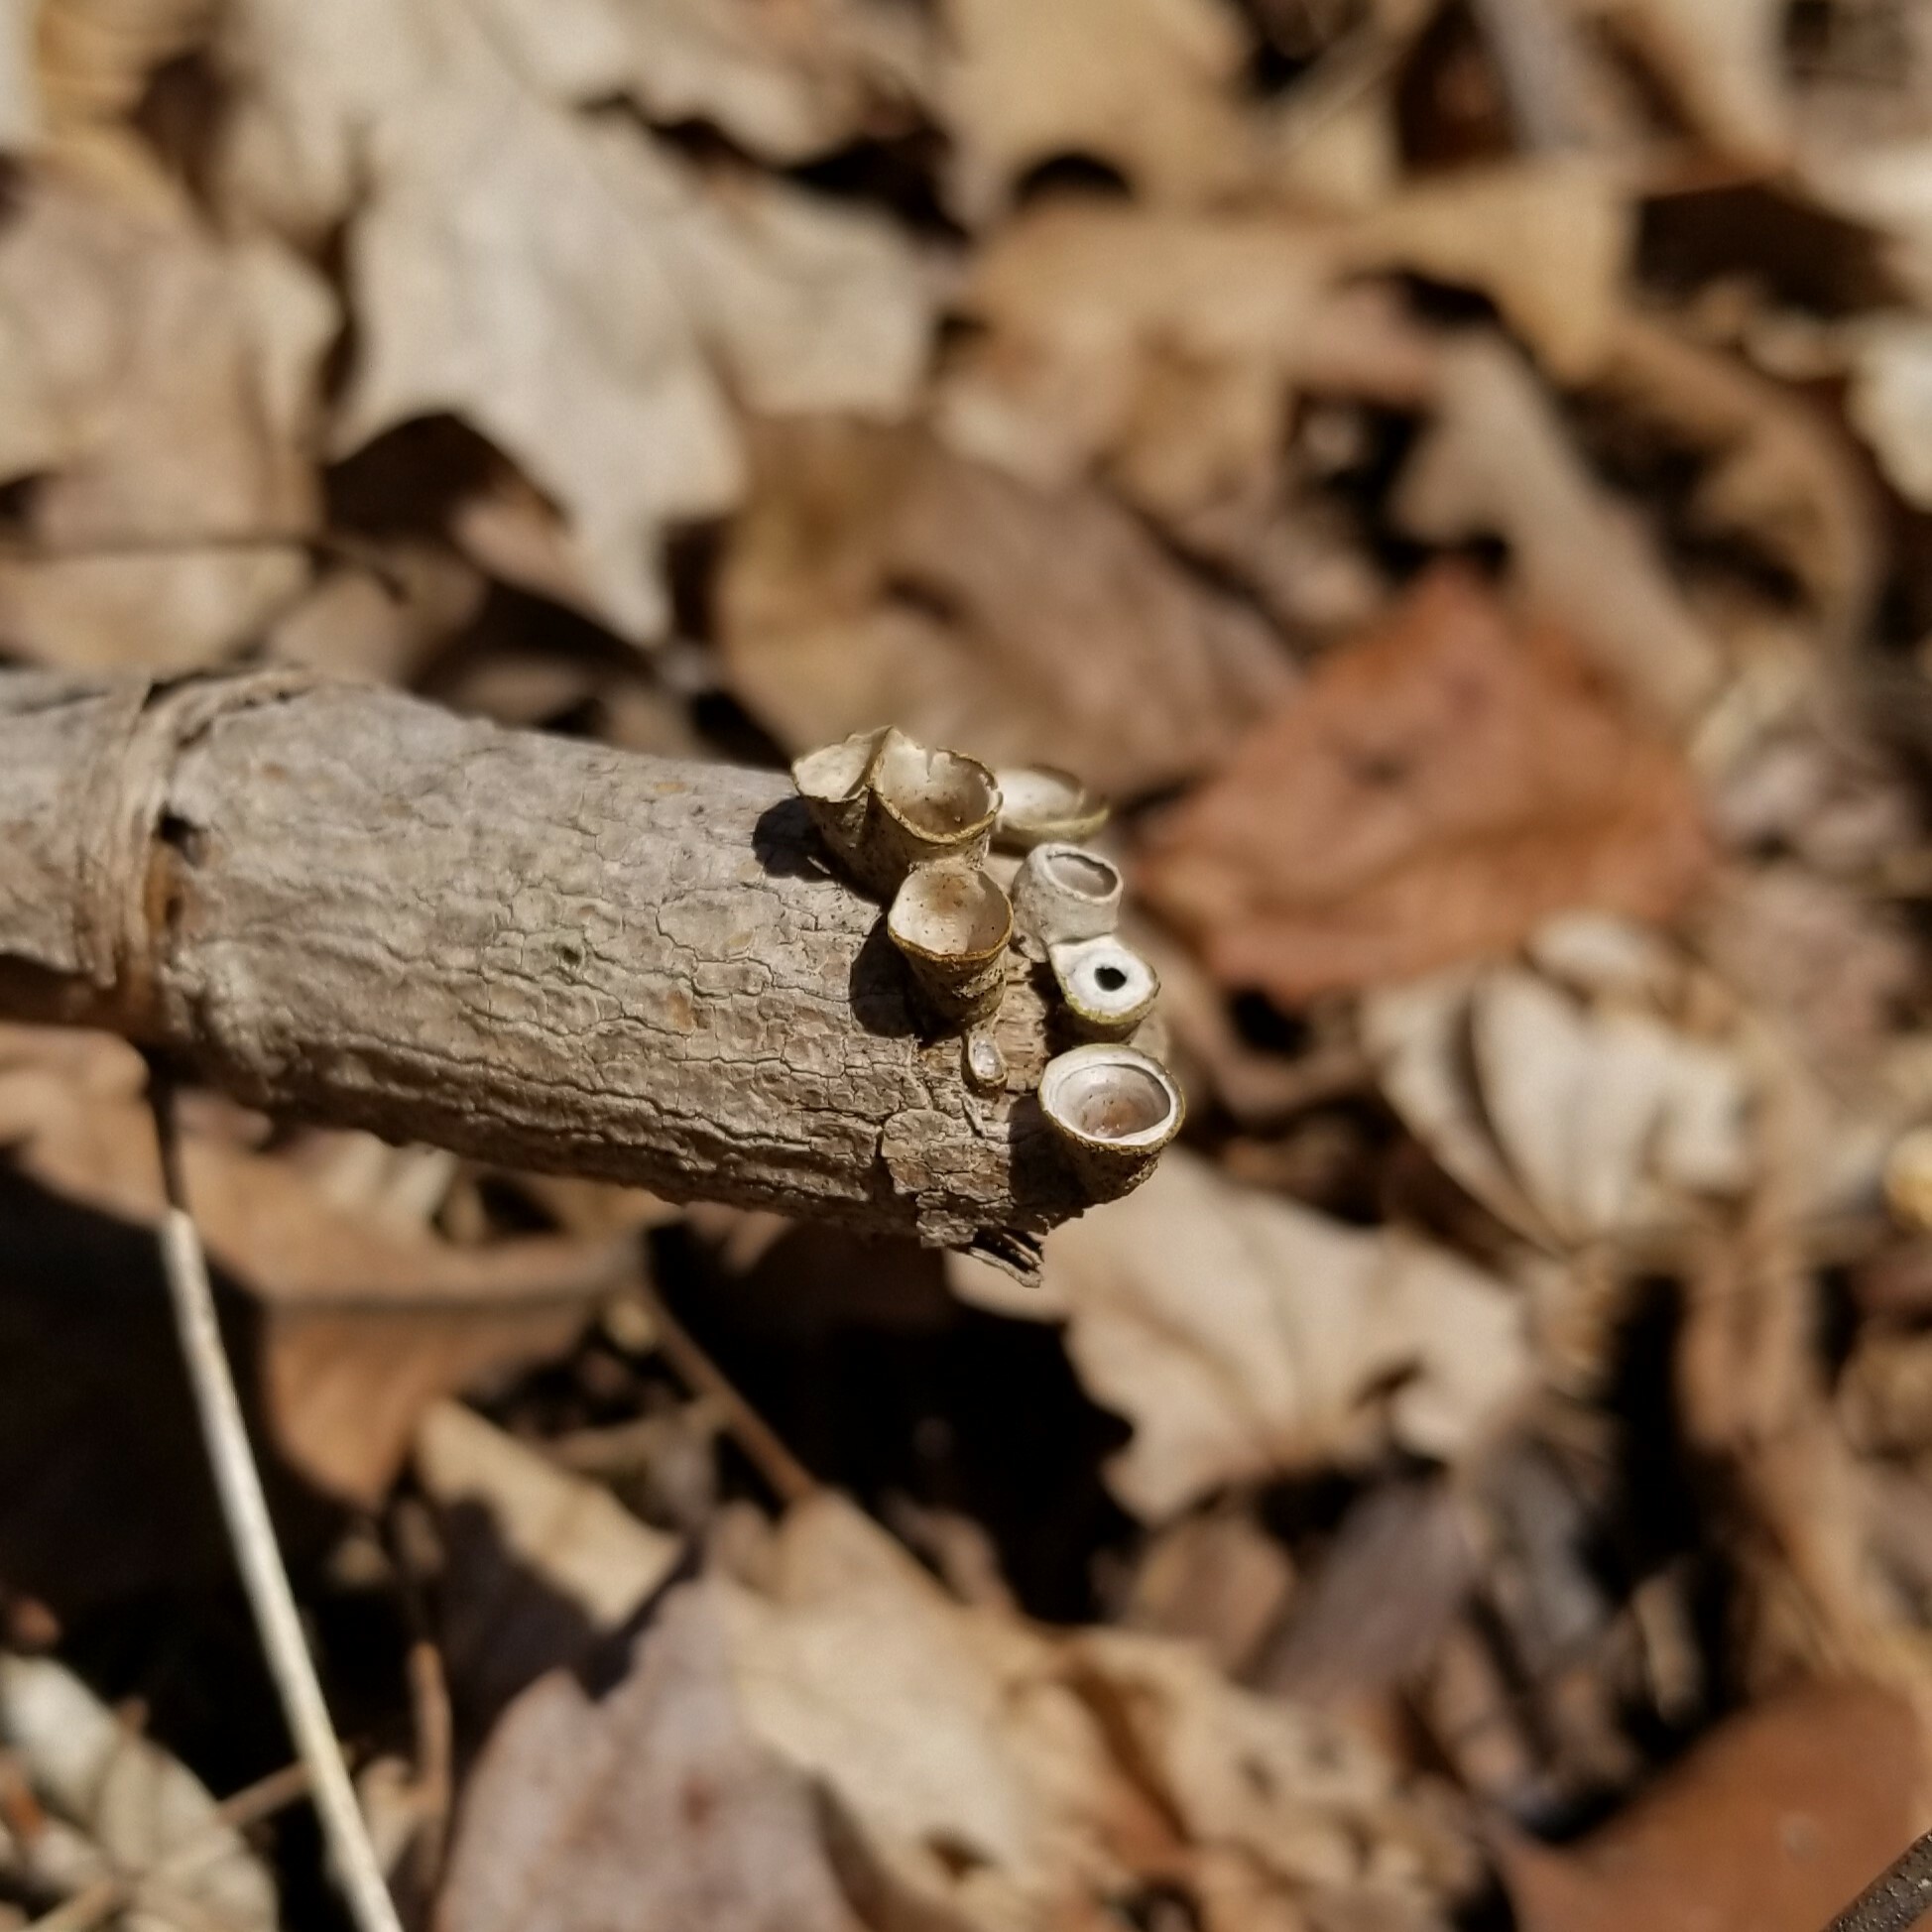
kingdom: Fungi
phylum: Basidiomycota
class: Agaricomycetes
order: Agaricales
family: Nidulariaceae
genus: Crucibulum
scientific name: Crucibulum laeve
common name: Common bird's nest
